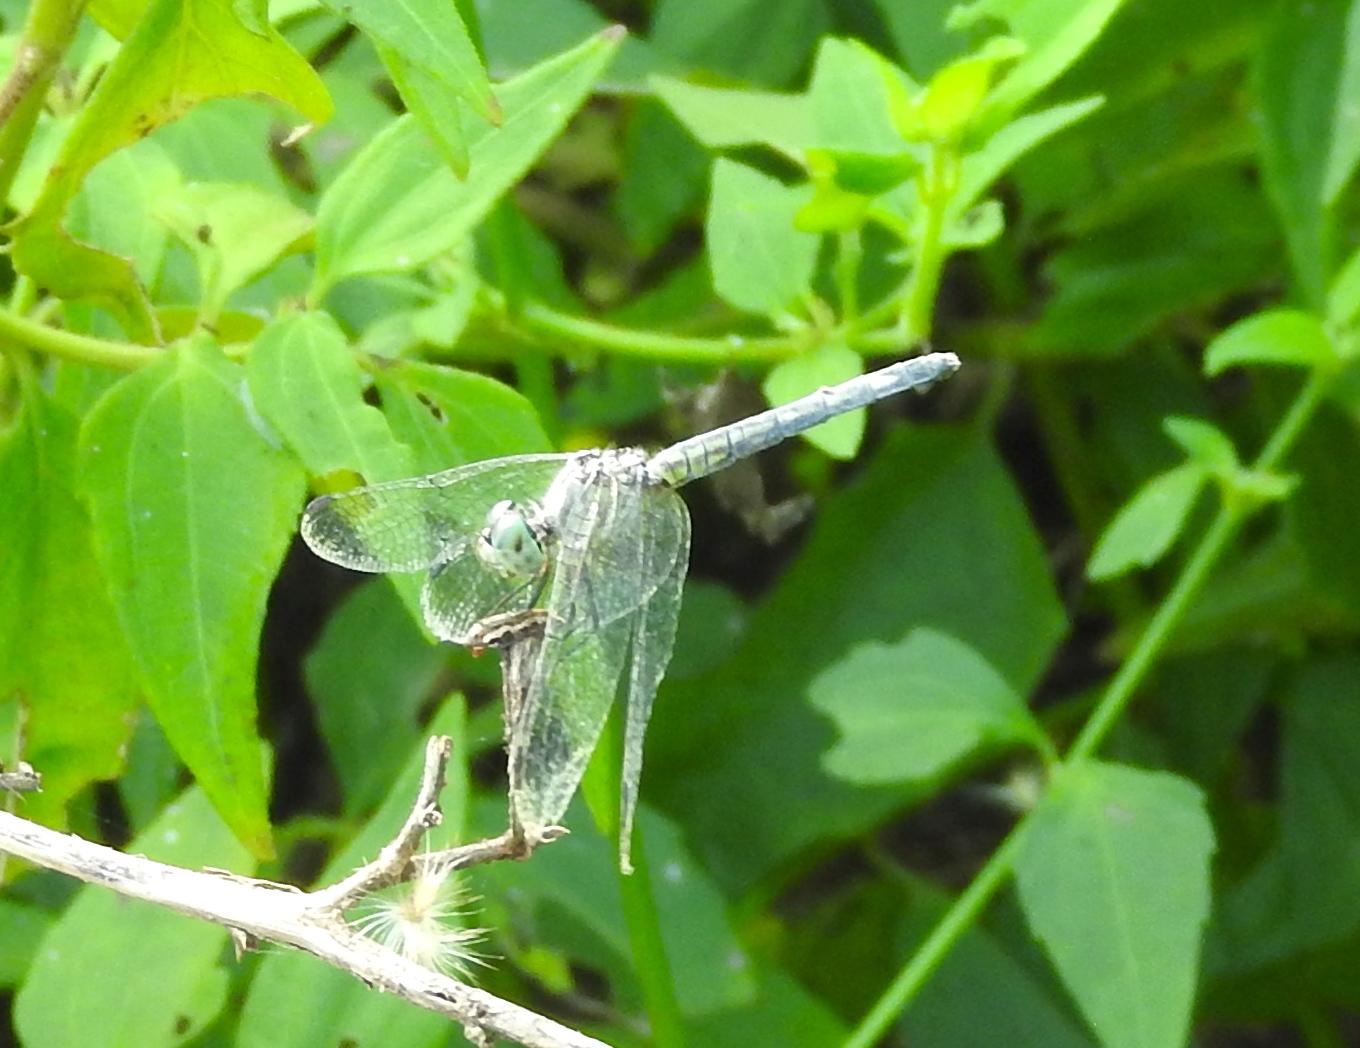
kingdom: Animalia
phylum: Arthropoda
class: Insecta
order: Odonata
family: Libellulidae
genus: Micrathyria
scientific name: Micrathyria aequalis
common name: Spot-tailed dasher
